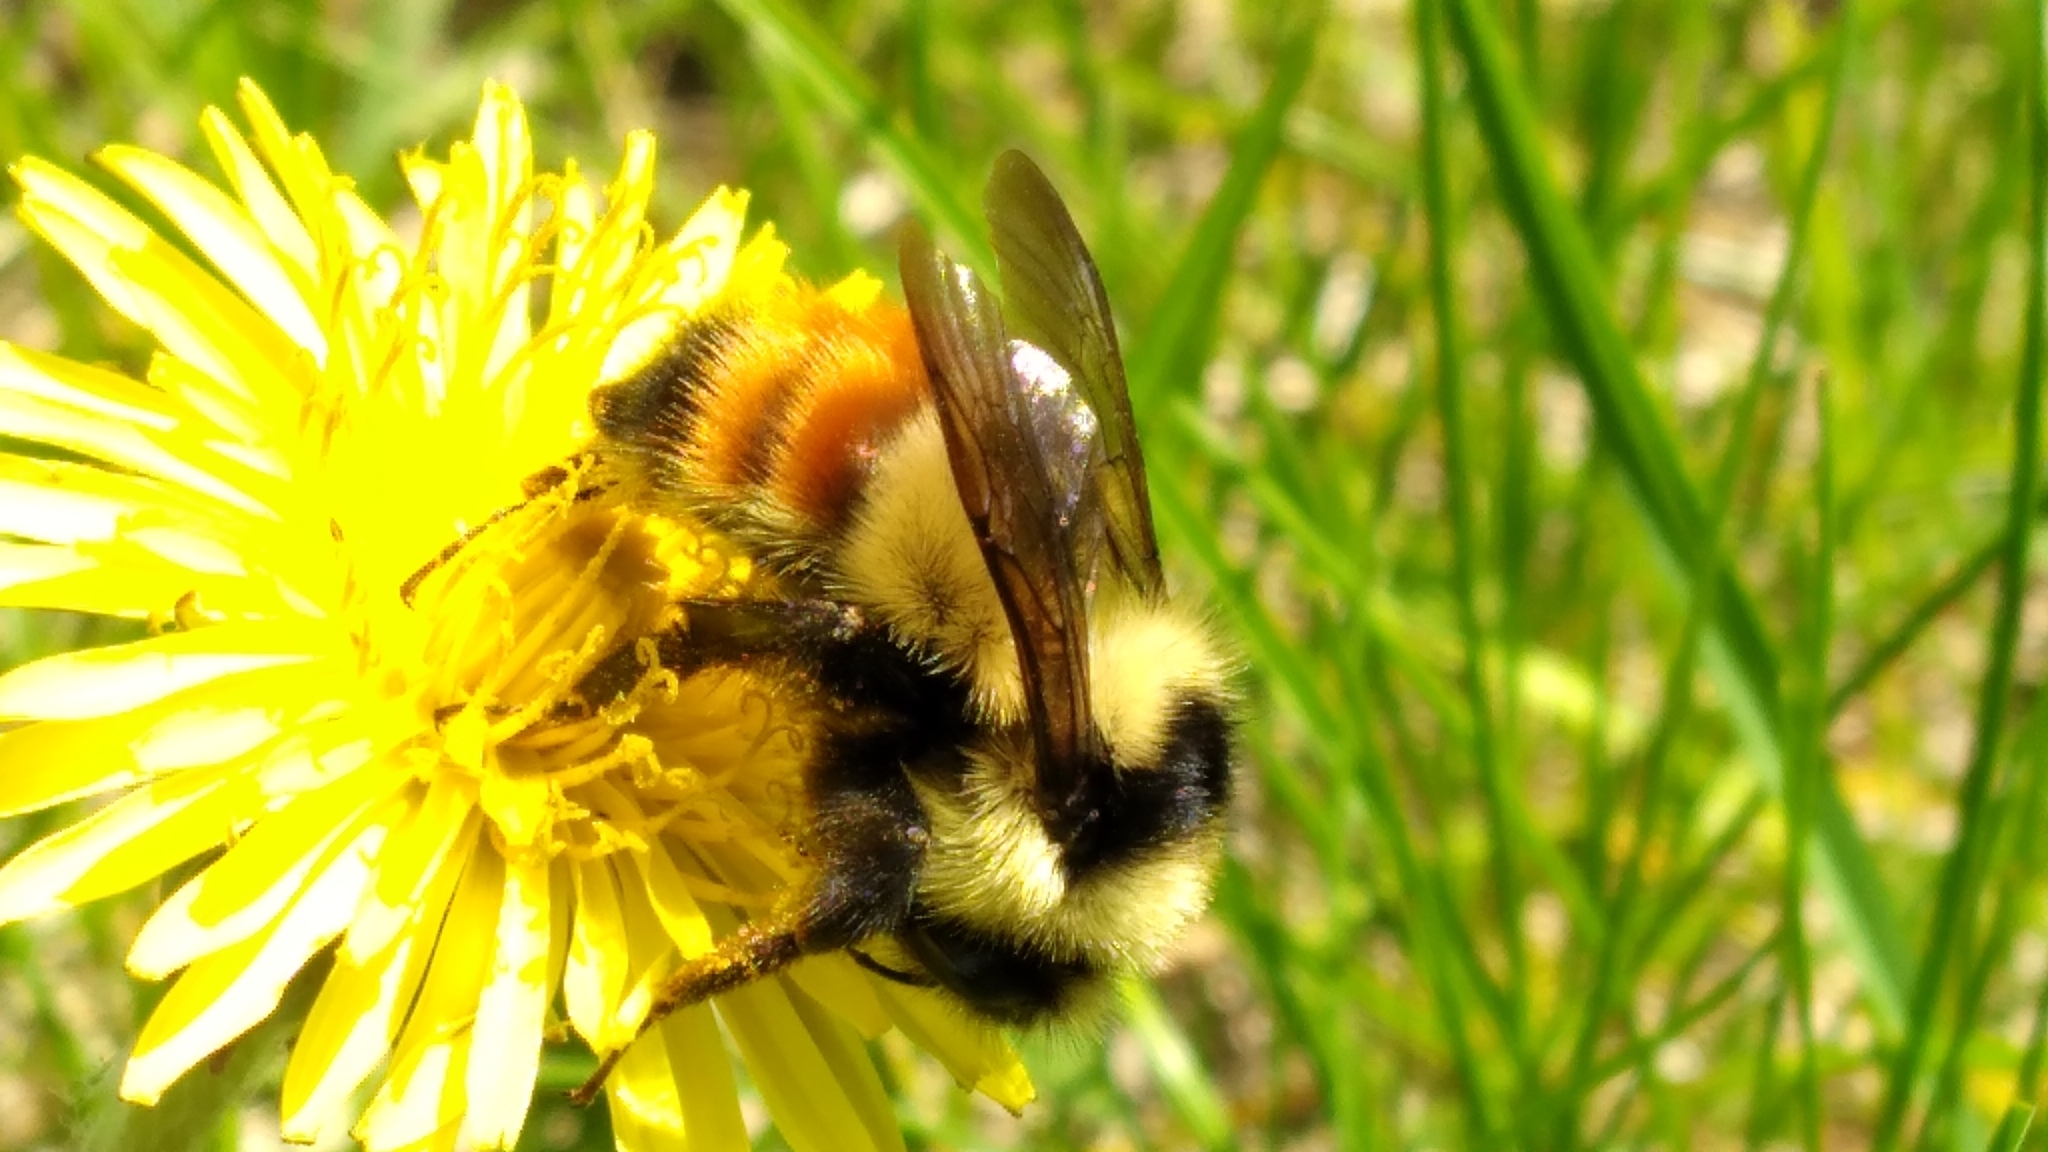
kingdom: Animalia
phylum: Arthropoda
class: Insecta
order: Hymenoptera
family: Apidae
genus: Bombus
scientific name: Bombus centralis
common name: Central bumble bee
